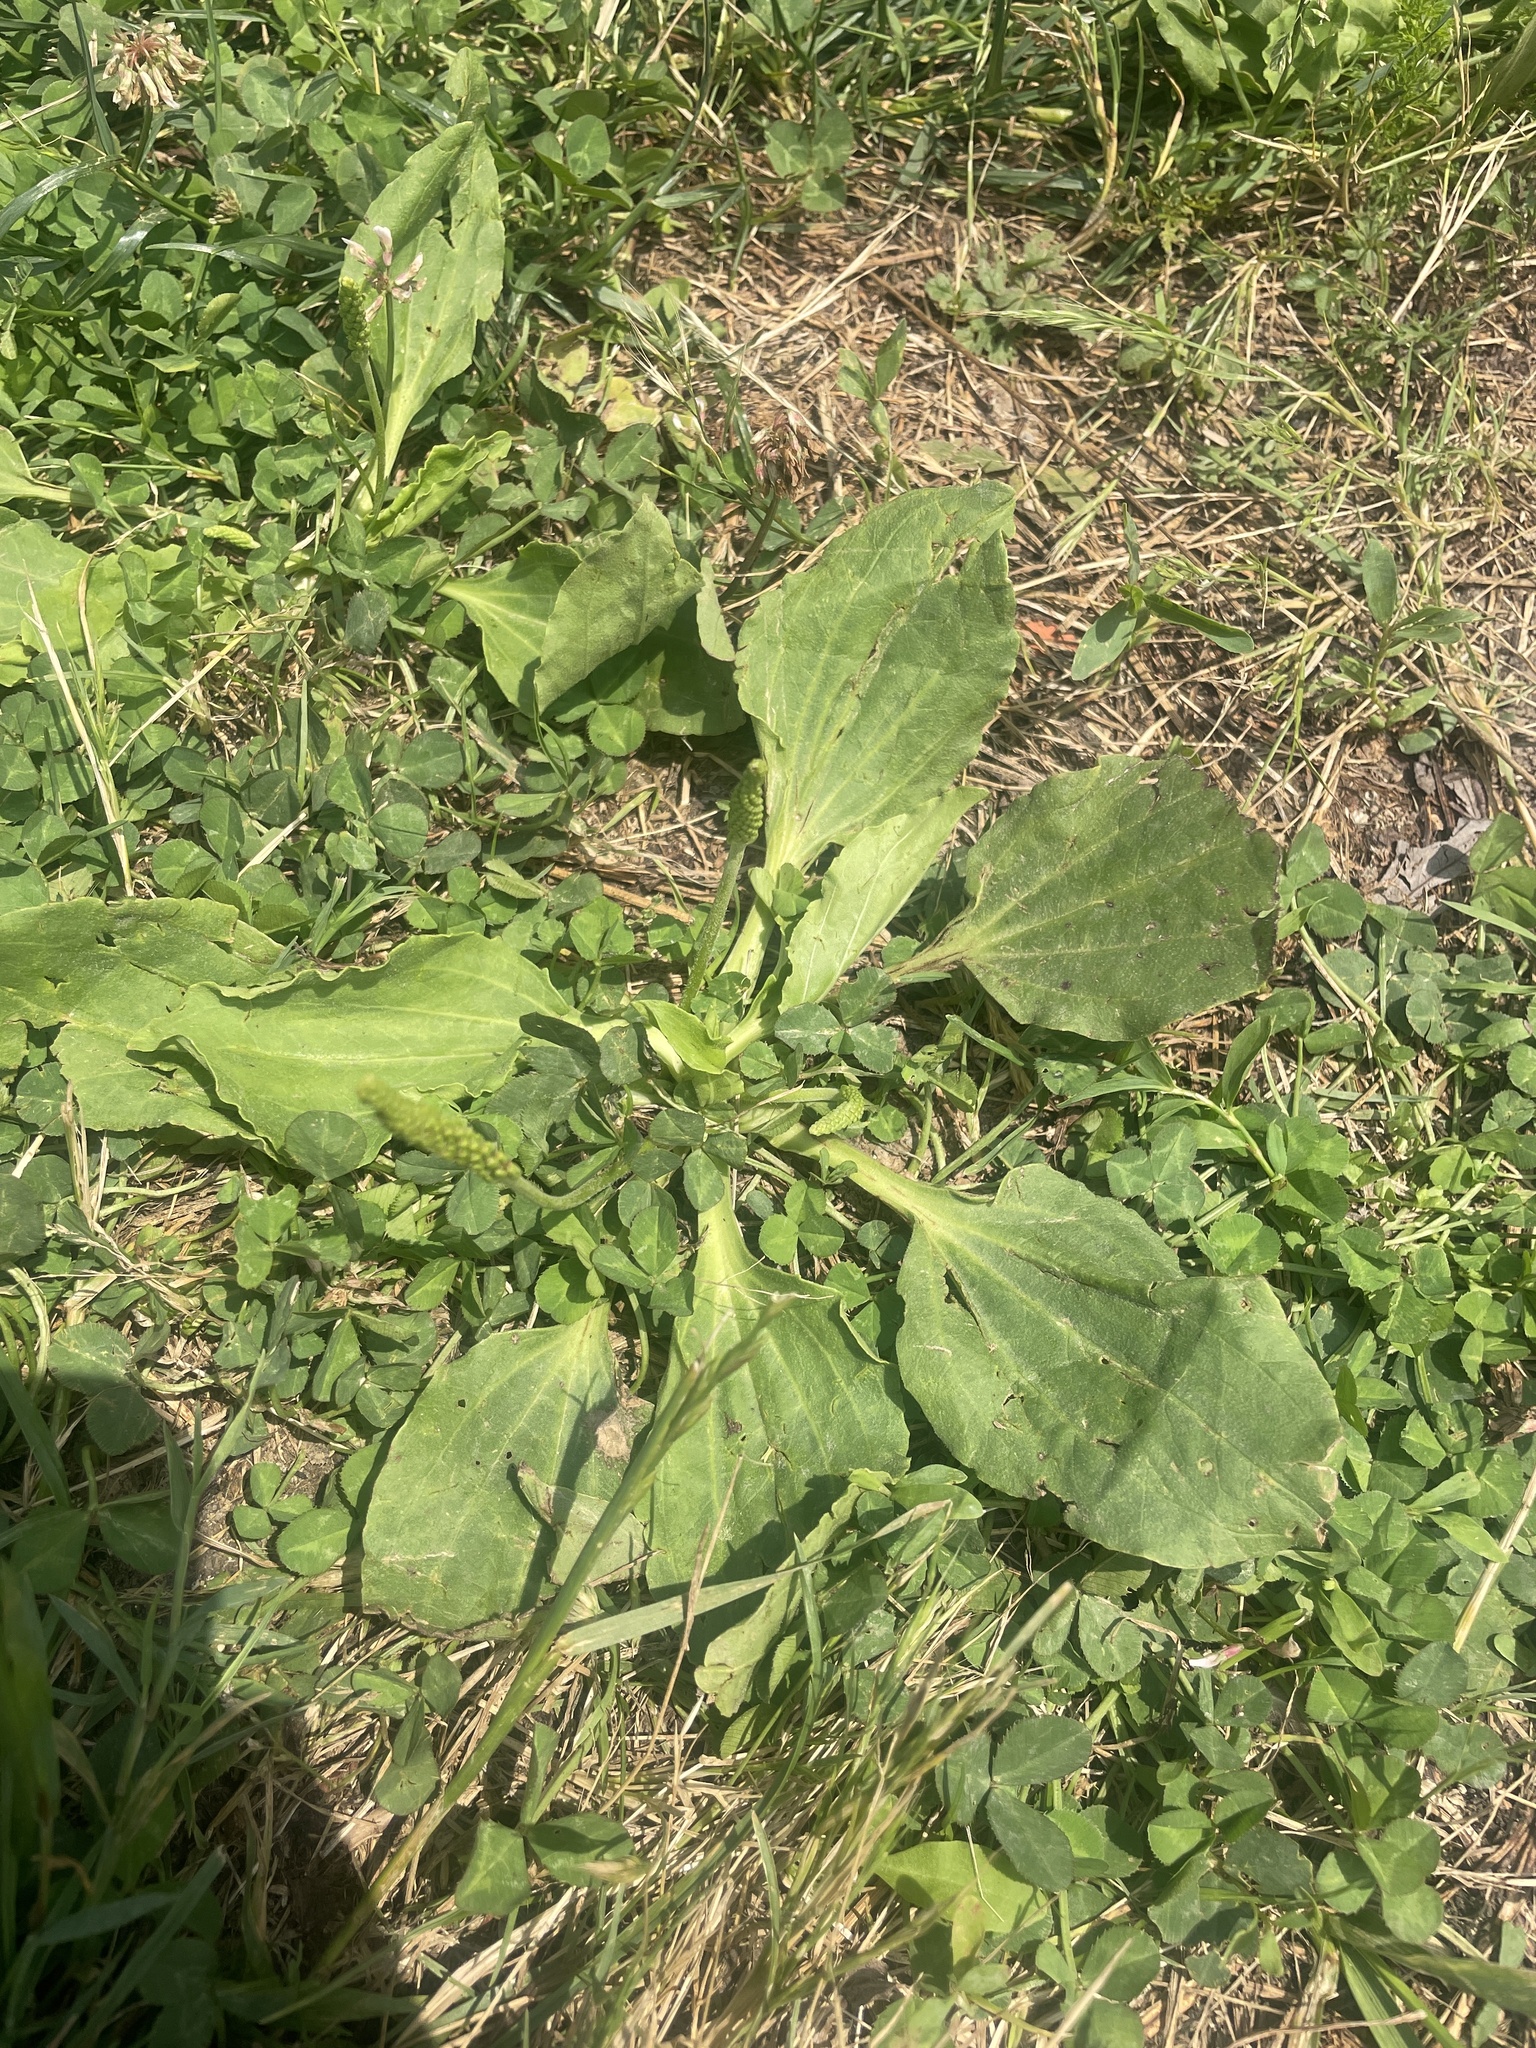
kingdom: Plantae
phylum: Tracheophyta
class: Magnoliopsida
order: Lamiales
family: Plantaginaceae
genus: Plantago
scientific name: Plantago major
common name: Common plantain
